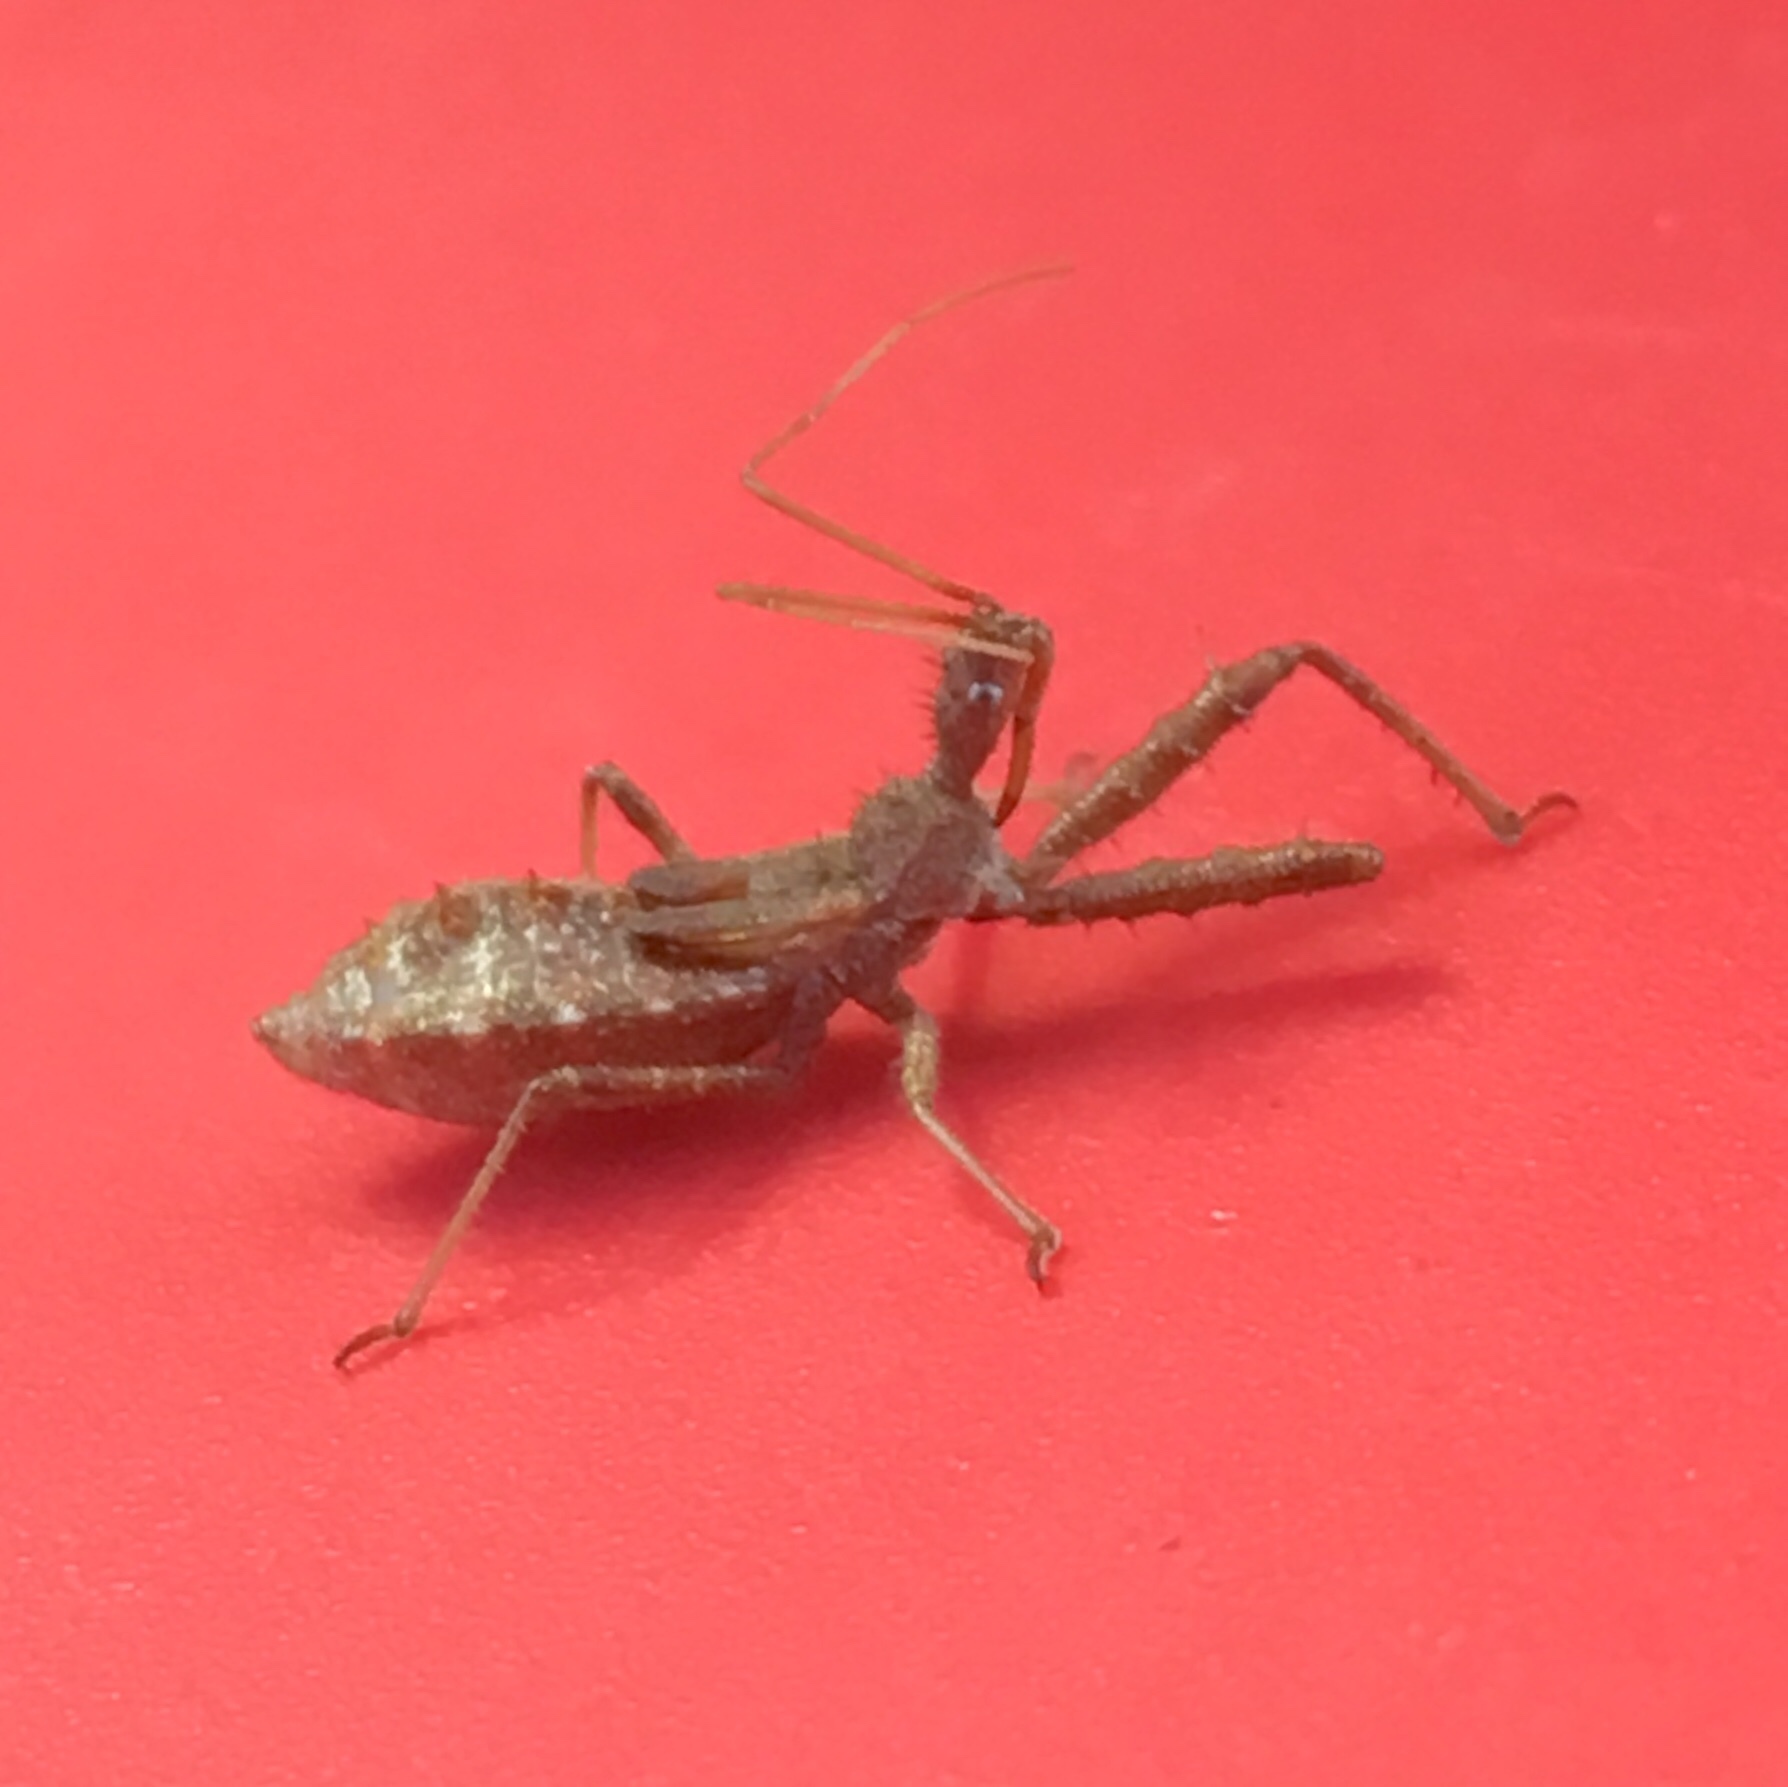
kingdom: Animalia
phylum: Arthropoda
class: Insecta
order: Hemiptera
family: Reduviidae
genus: Sinea
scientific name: Sinea
